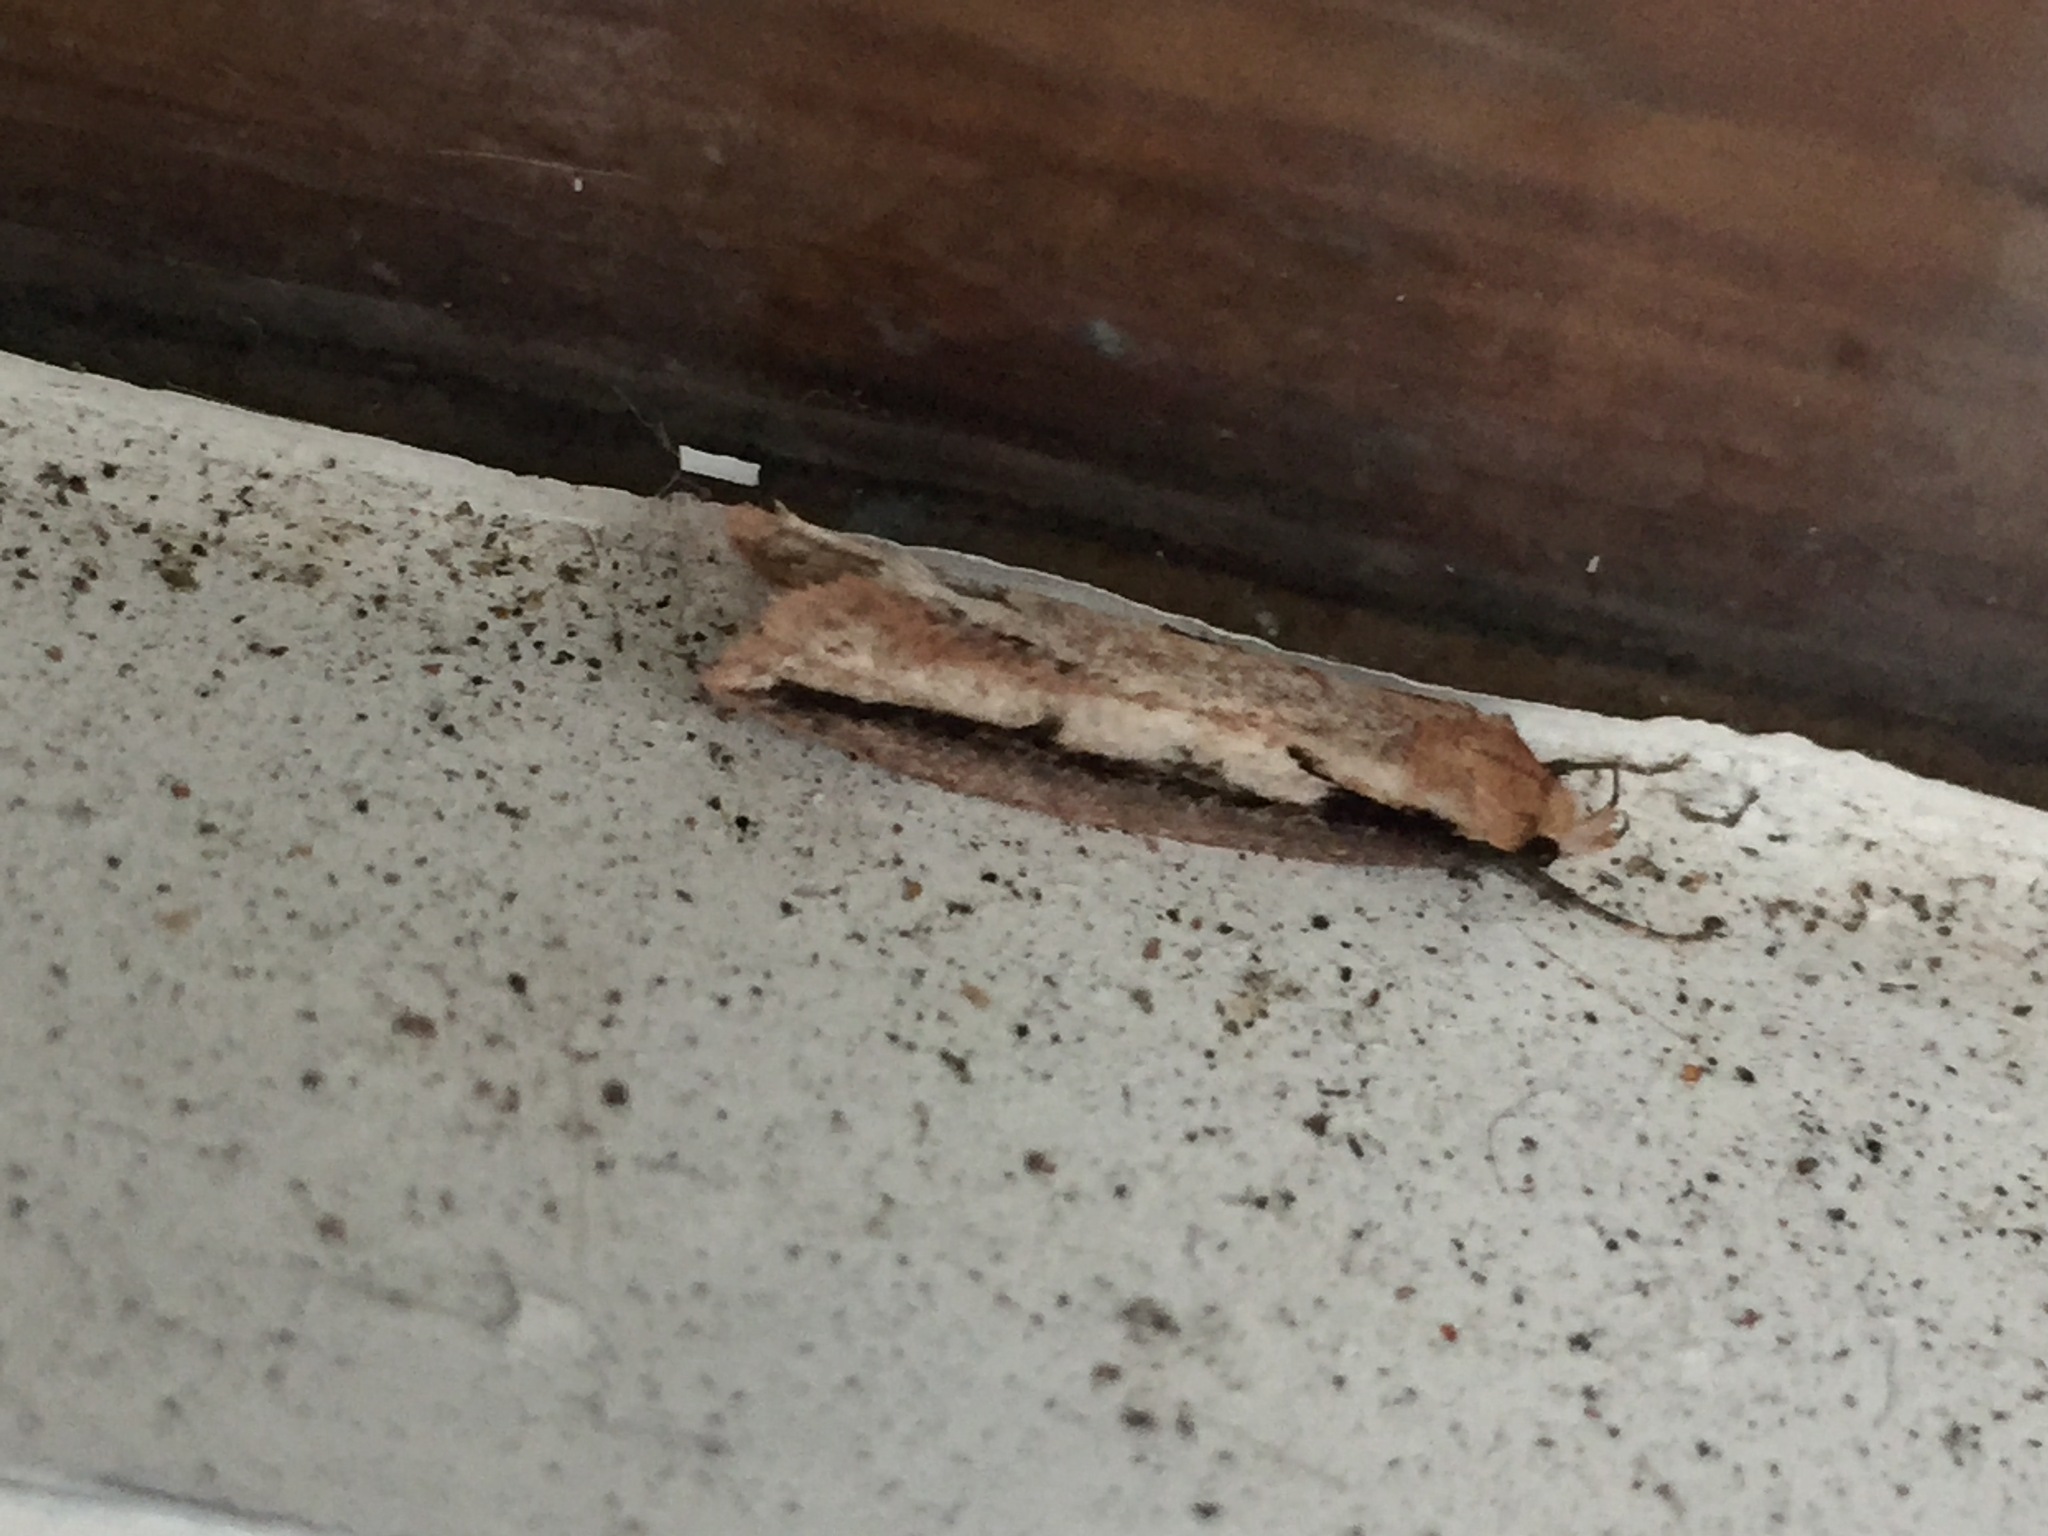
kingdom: Animalia
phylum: Arthropoda
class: Insecta
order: Lepidoptera
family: Oecophoridae
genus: Leptocroca
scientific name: Leptocroca sanguinolenta
